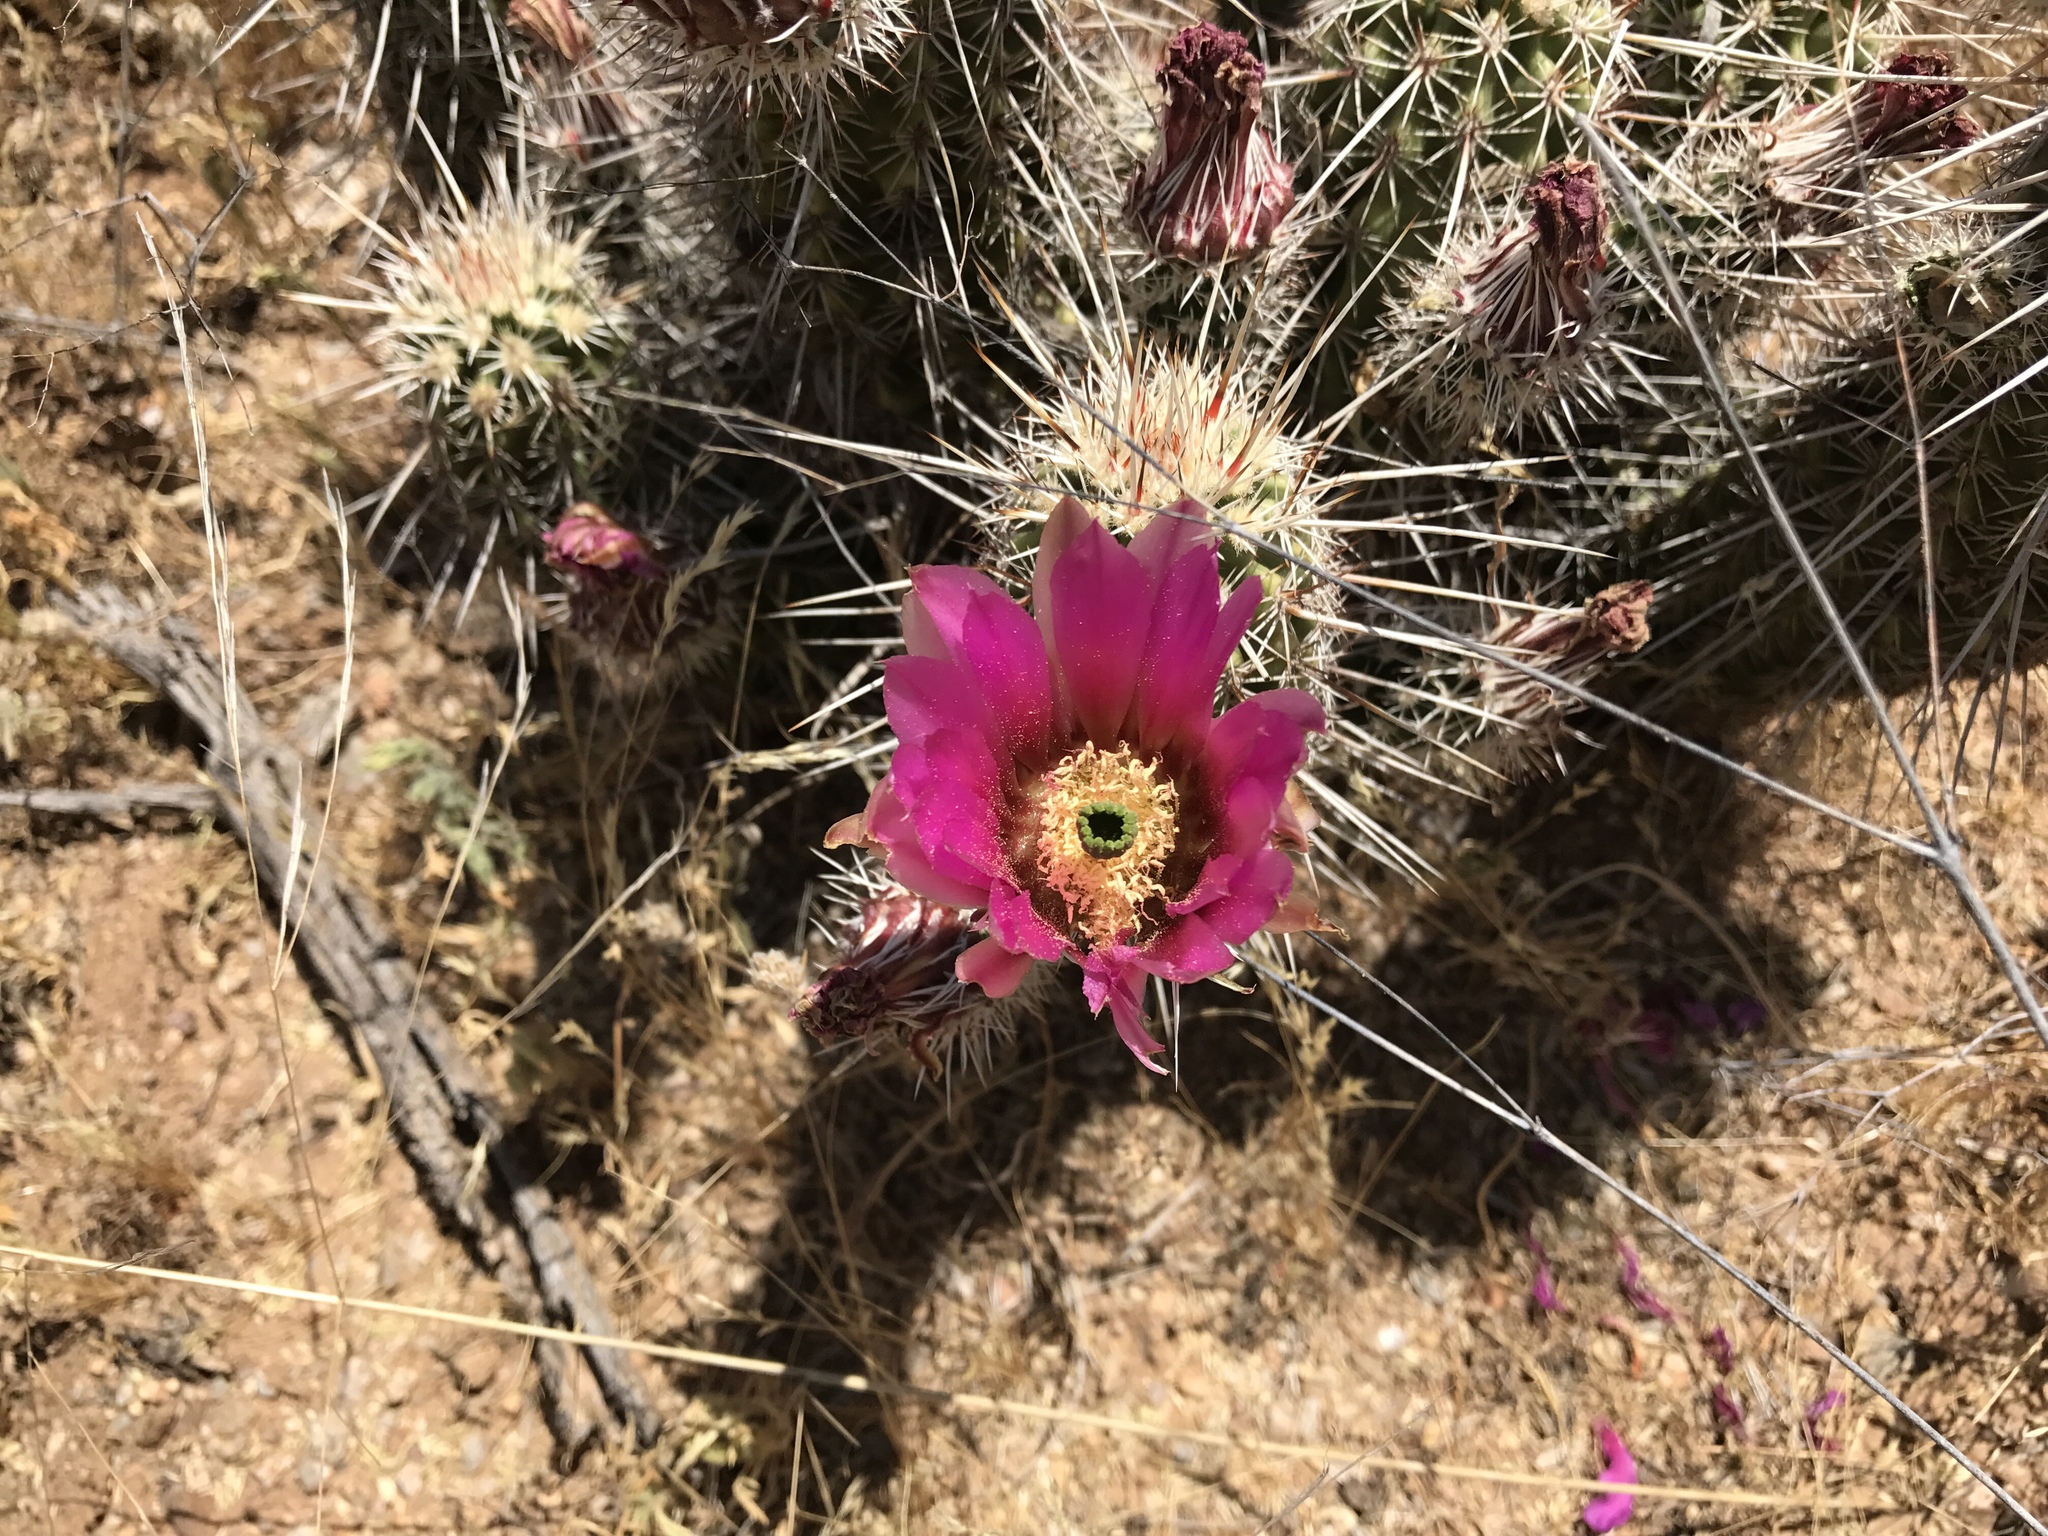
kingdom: Plantae
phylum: Tracheophyta
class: Magnoliopsida
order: Caryophyllales
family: Cactaceae
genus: Echinocereus
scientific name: Echinocereus fasciculatus
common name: Bundle hedgehog
